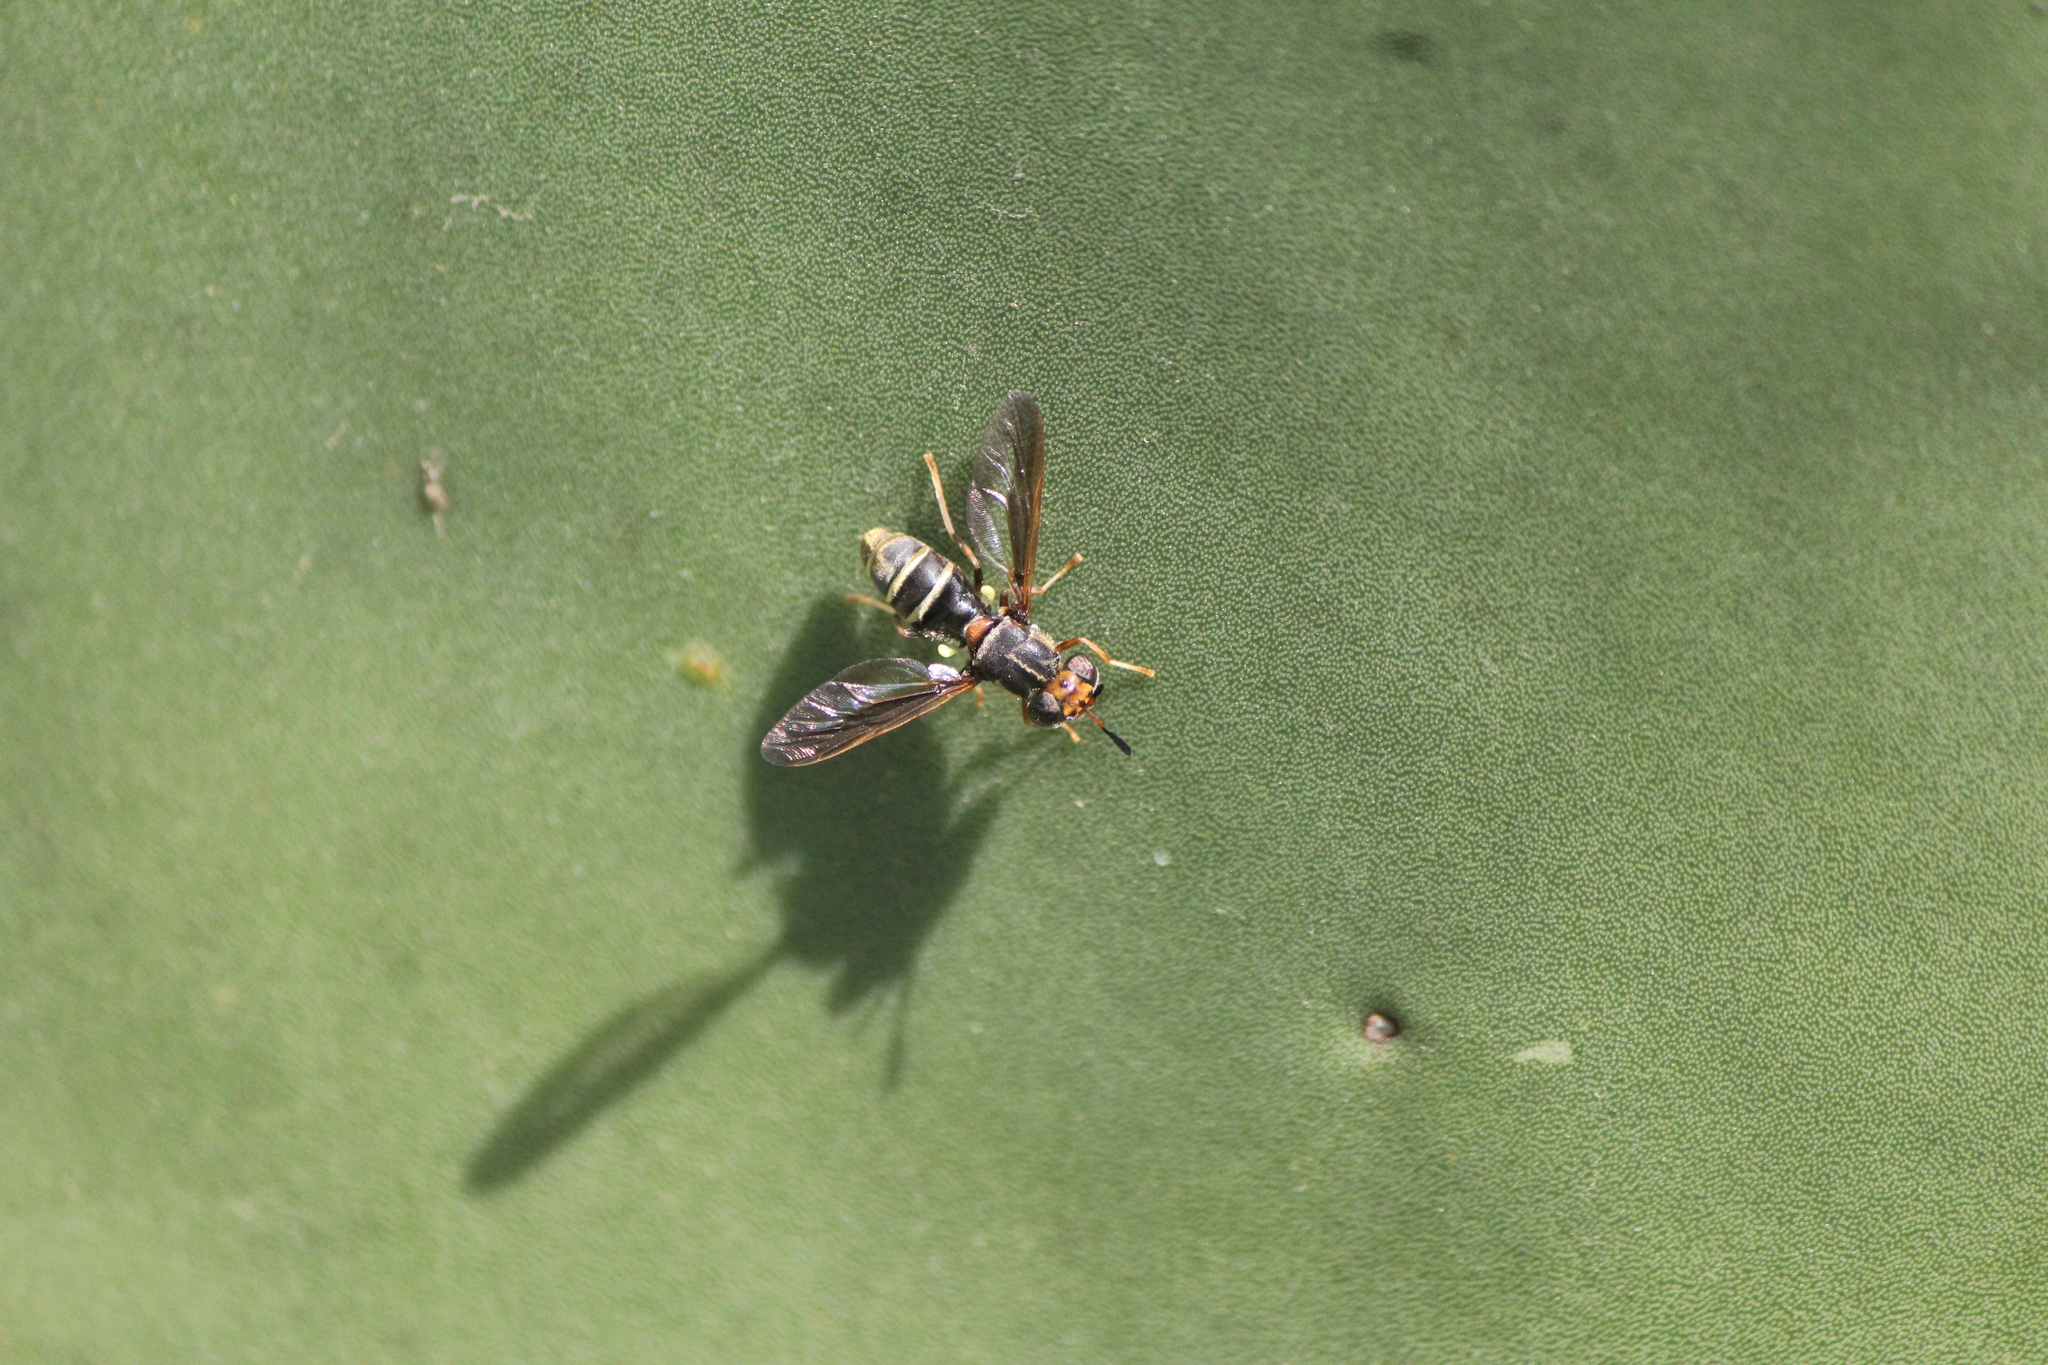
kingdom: Animalia
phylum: Arthropoda
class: Insecta
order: Diptera
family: Stratiomyidae
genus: Hermetia
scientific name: Hermetia comstocki
